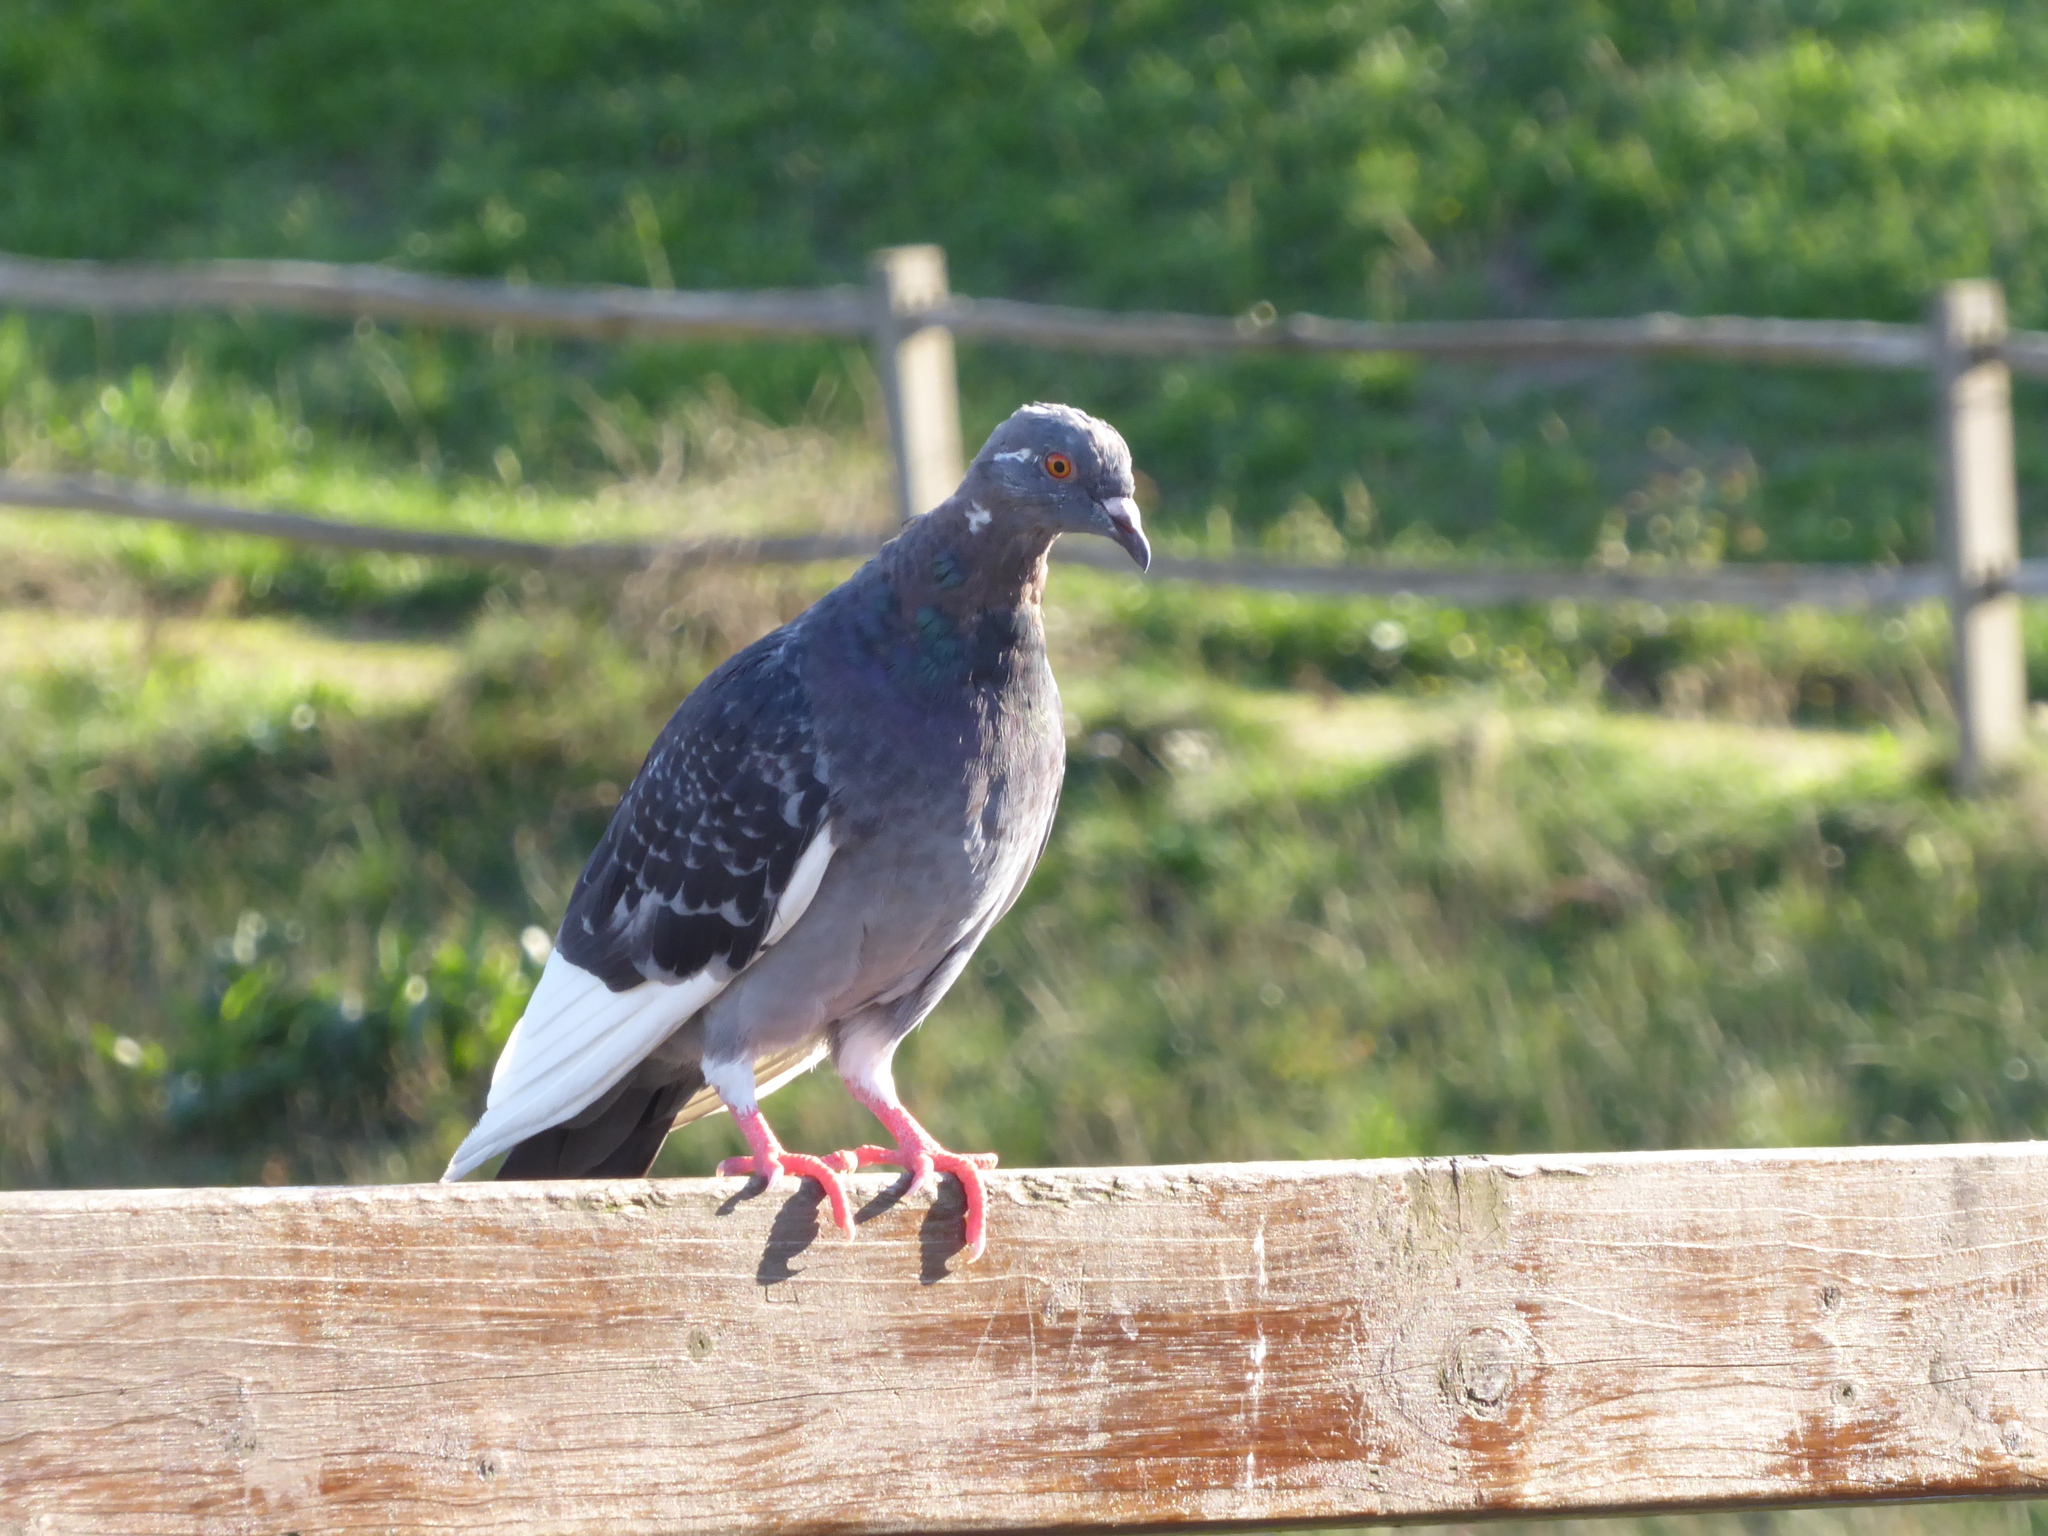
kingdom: Animalia
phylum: Chordata
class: Aves
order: Columbiformes
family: Columbidae
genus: Columba
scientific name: Columba livia
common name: Rock pigeon
